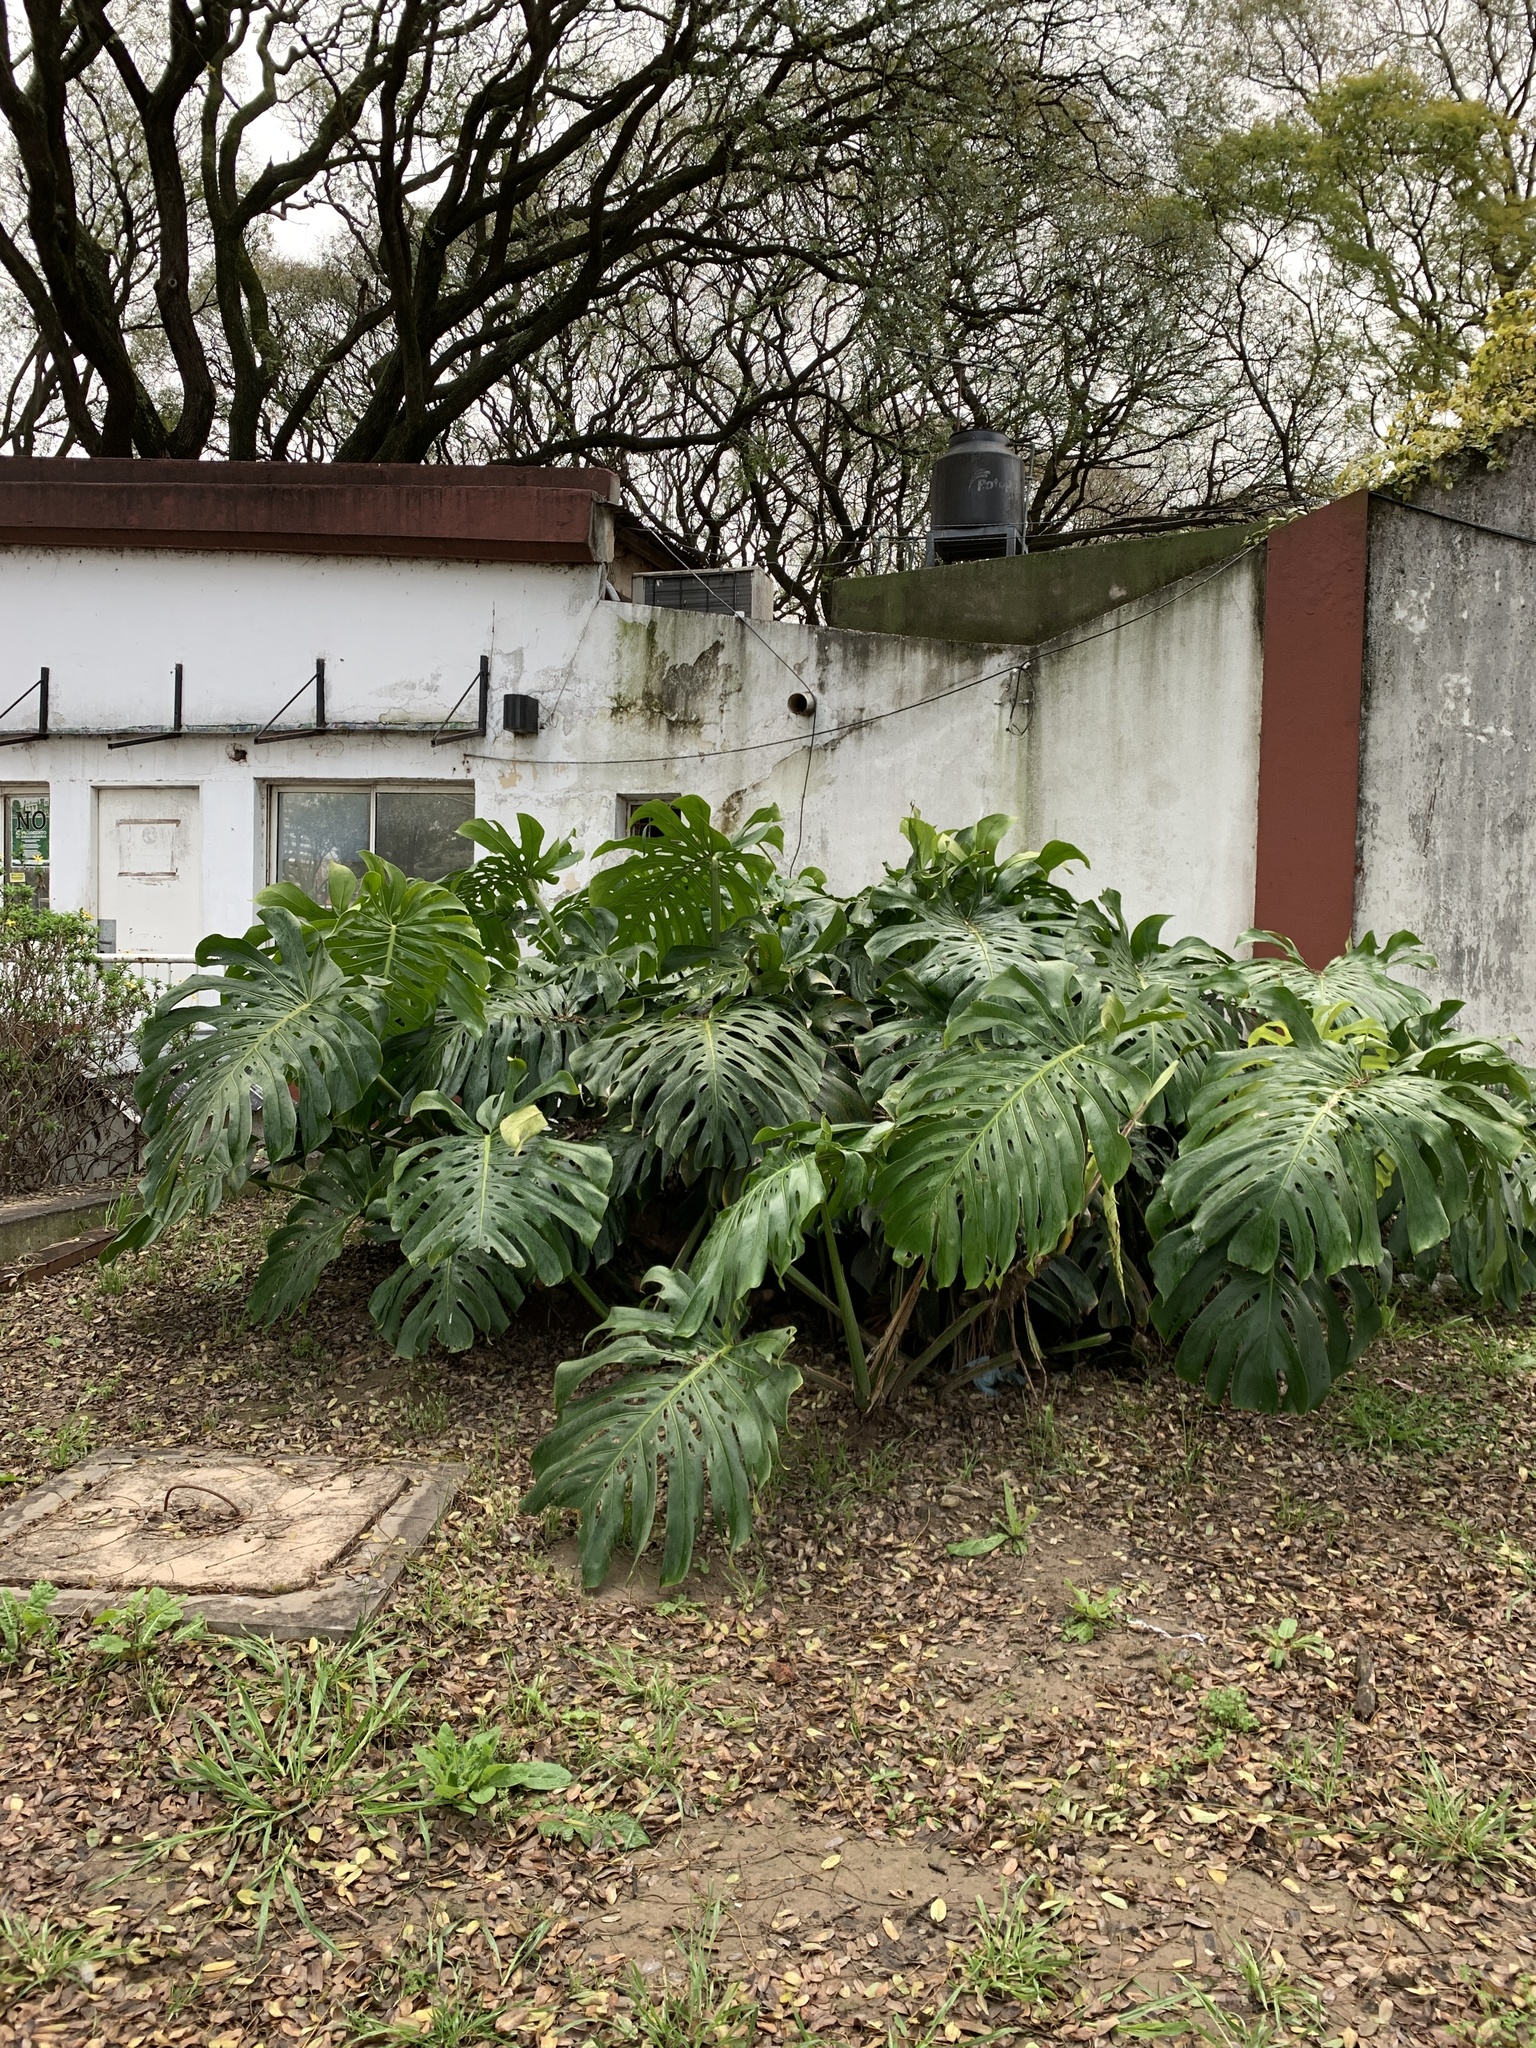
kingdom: Plantae
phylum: Tracheophyta
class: Liliopsida
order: Alismatales
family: Araceae
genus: Monstera
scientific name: Monstera deliciosa
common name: Cut-leaf-philodendron
